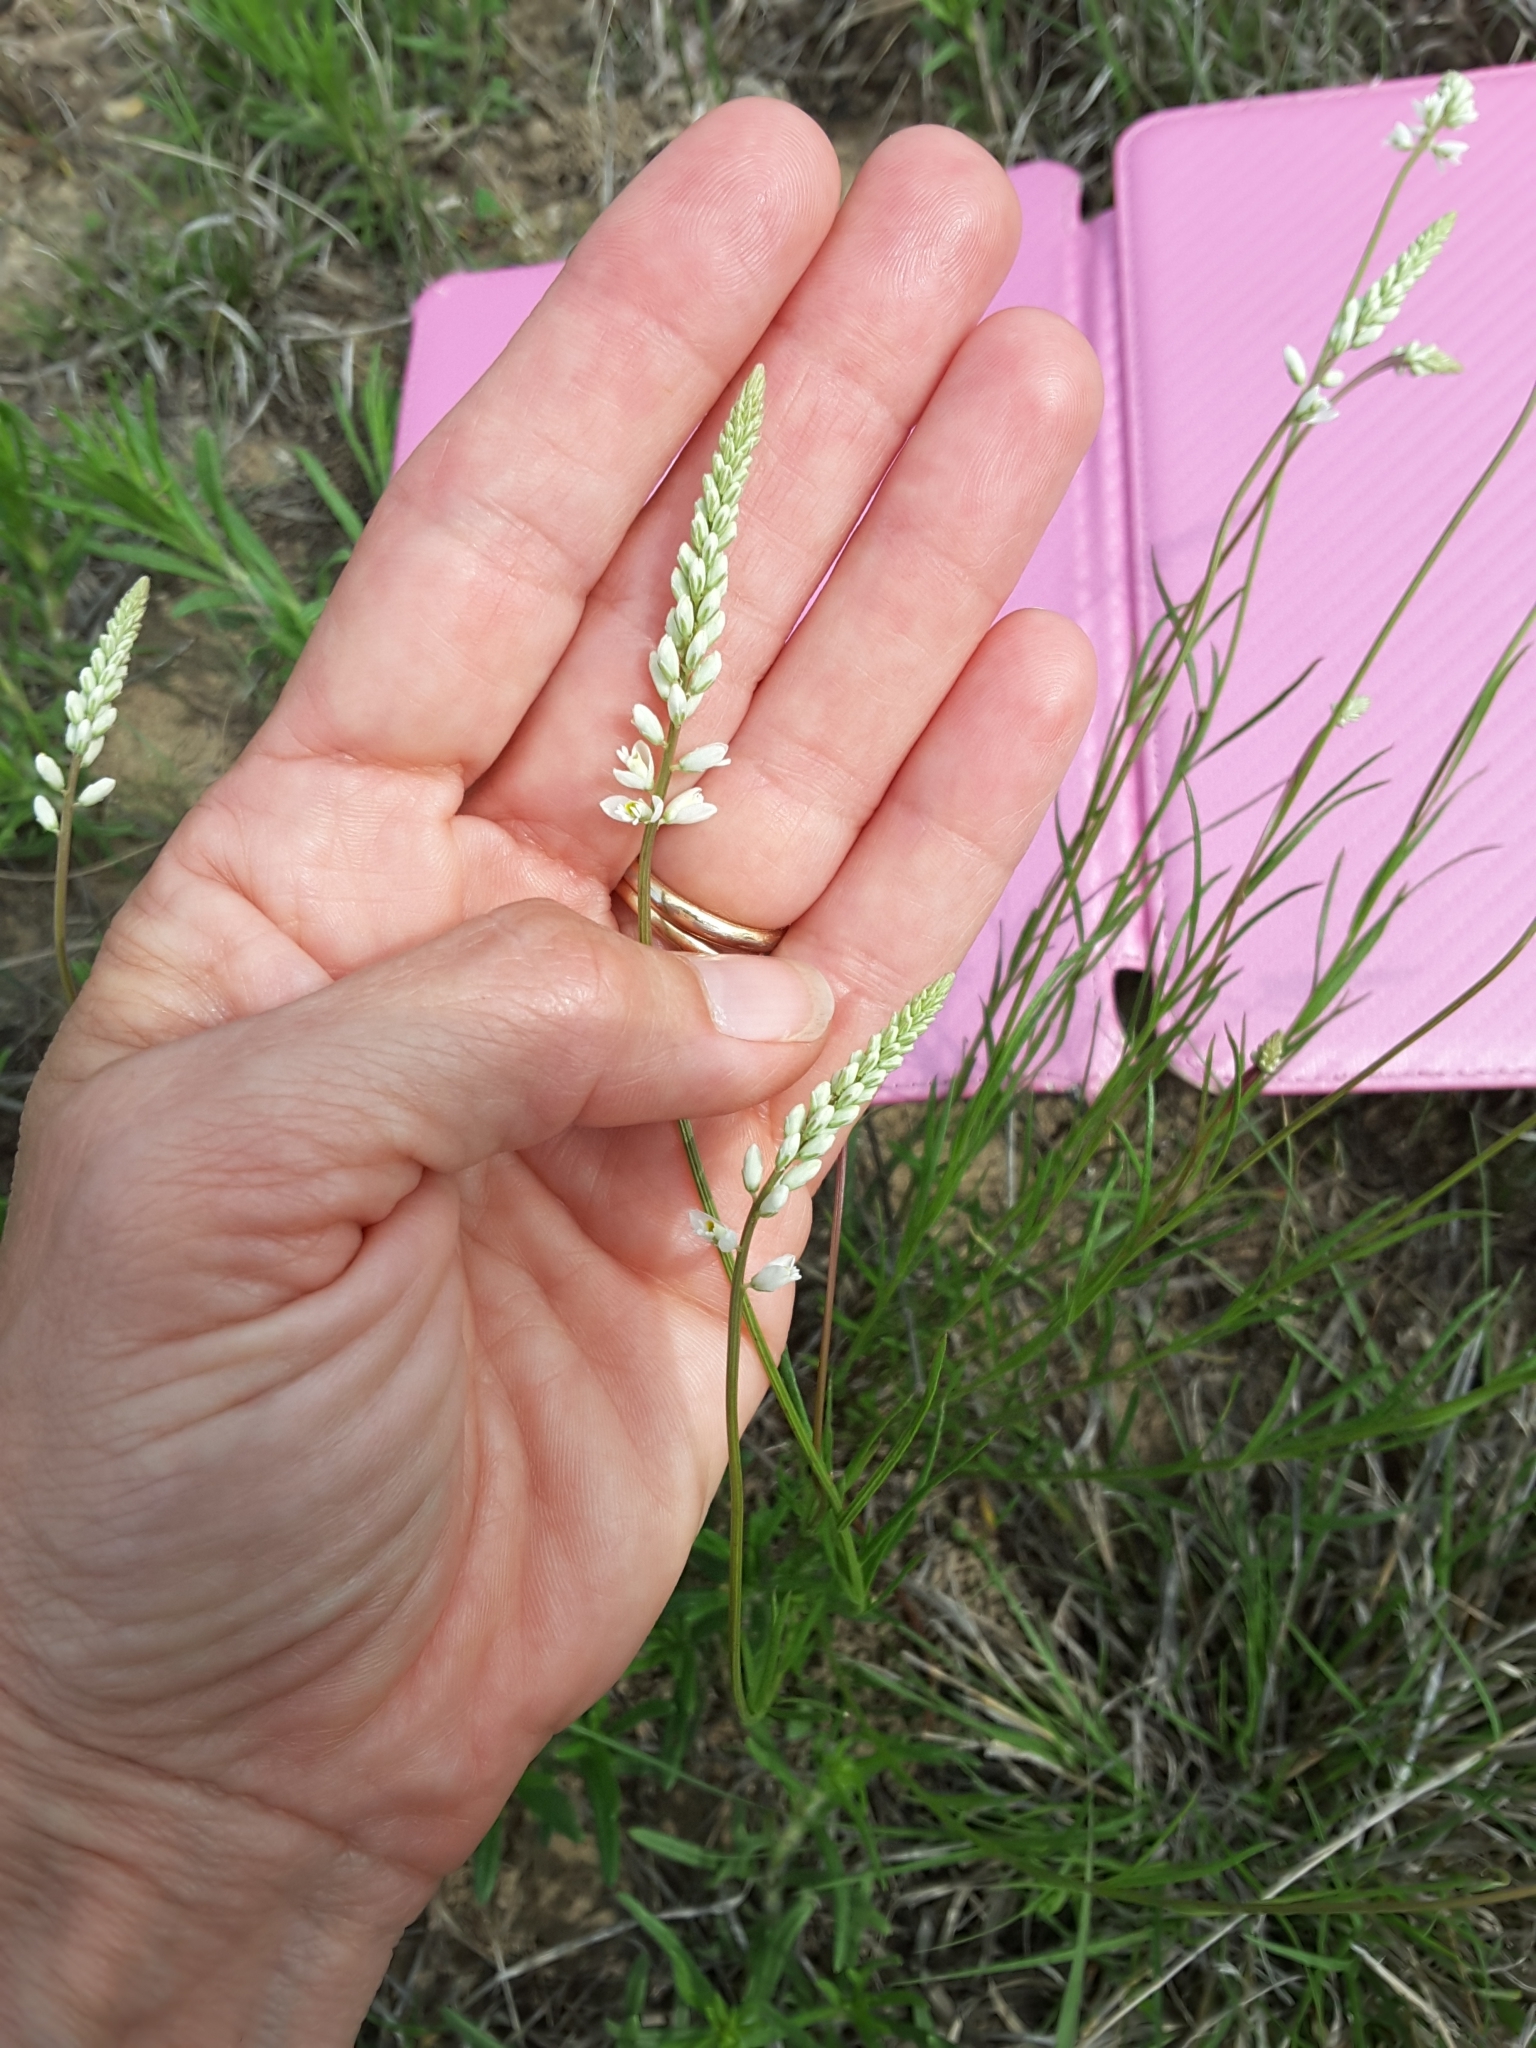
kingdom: Plantae
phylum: Tracheophyta
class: Magnoliopsida
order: Fabales
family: Polygalaceae
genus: Polygala
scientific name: Polygala alba
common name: White milkwort
